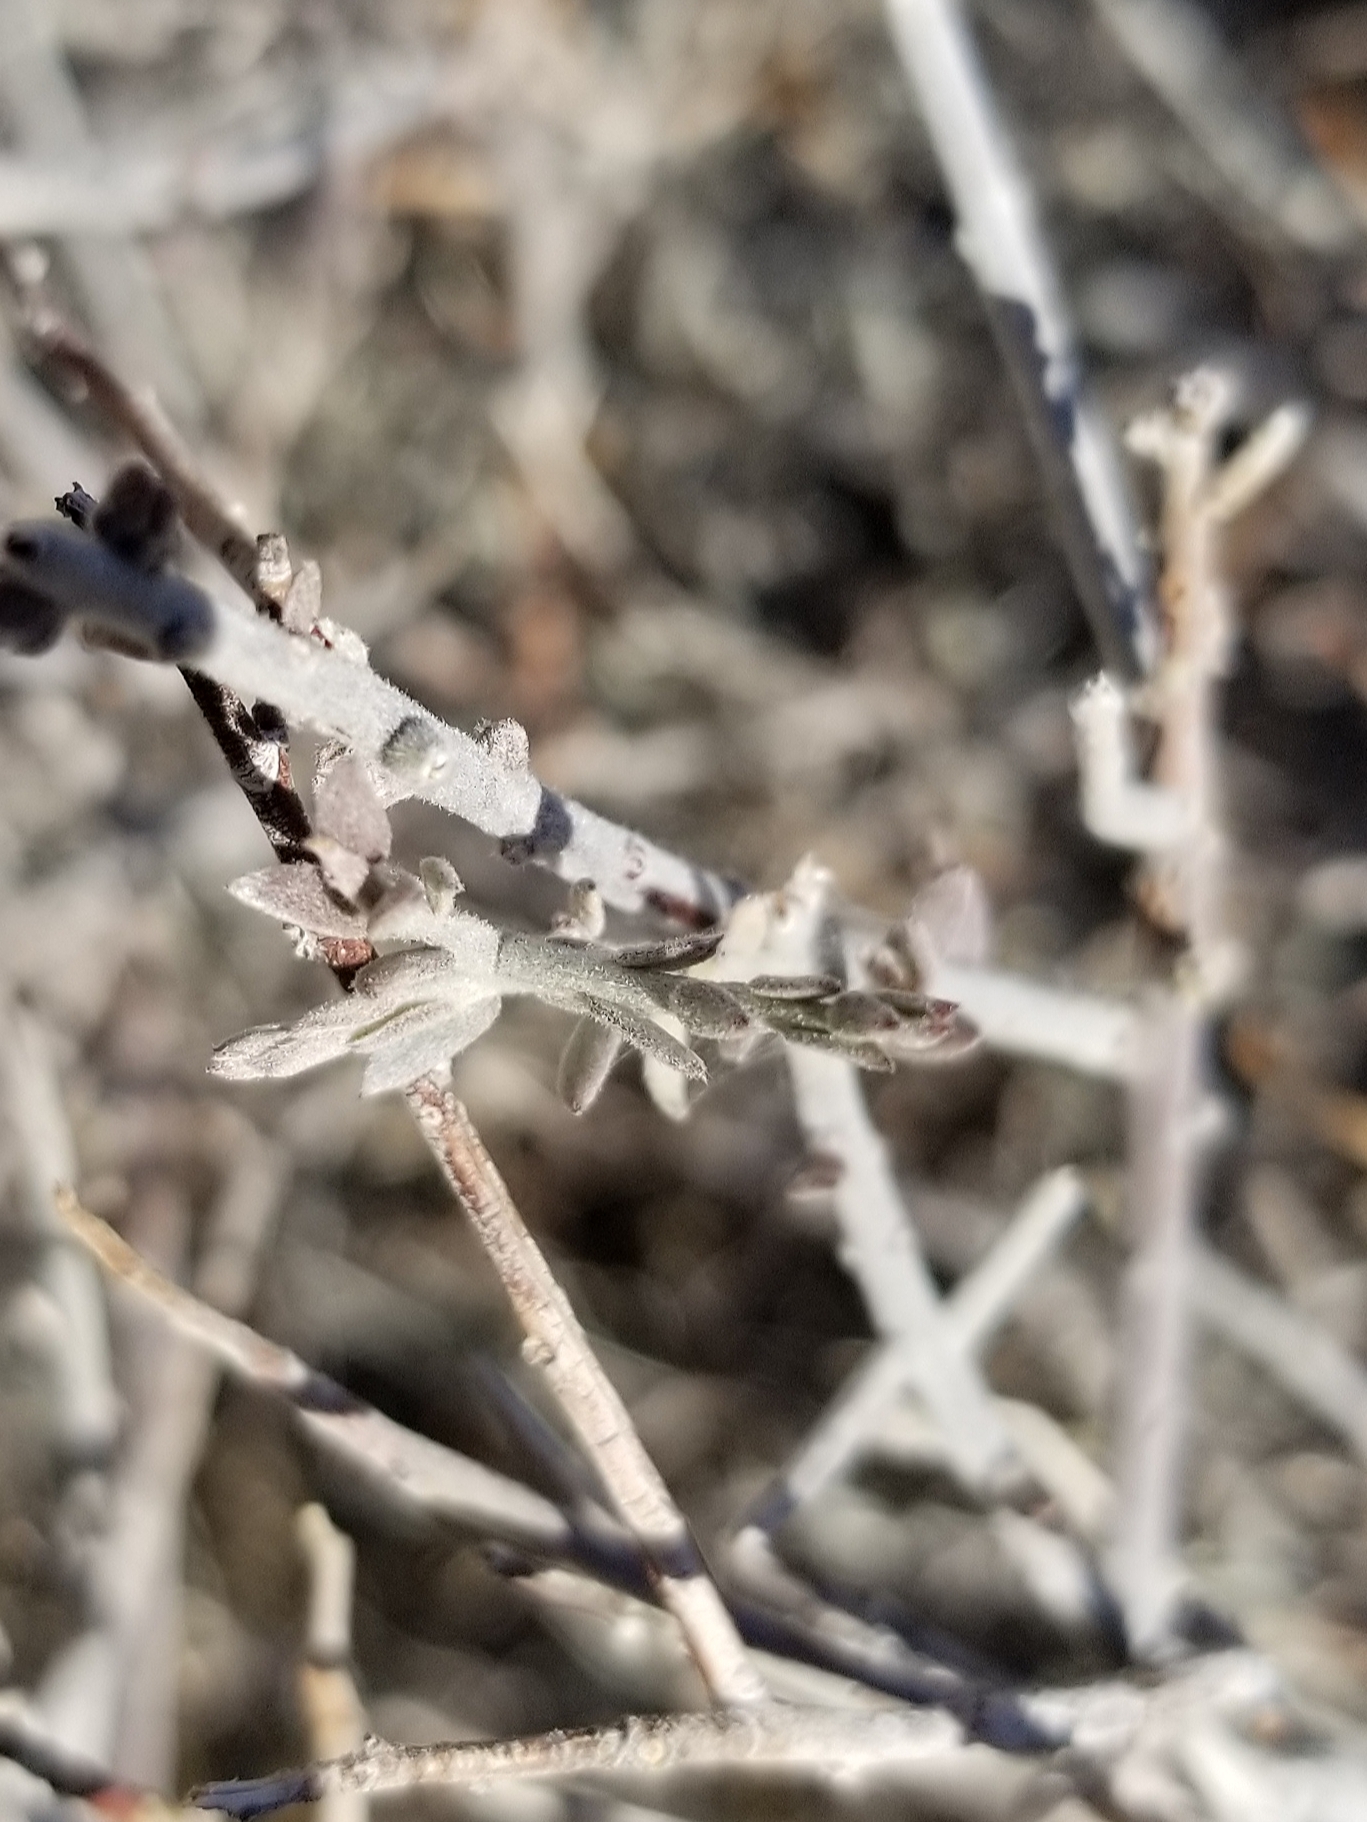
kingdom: Plantae
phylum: Tracheophyta
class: Magnoliopsida
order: Zygophyllales
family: Krameriaceae
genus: Krameria
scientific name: Krameria bicolor
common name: White ratany
